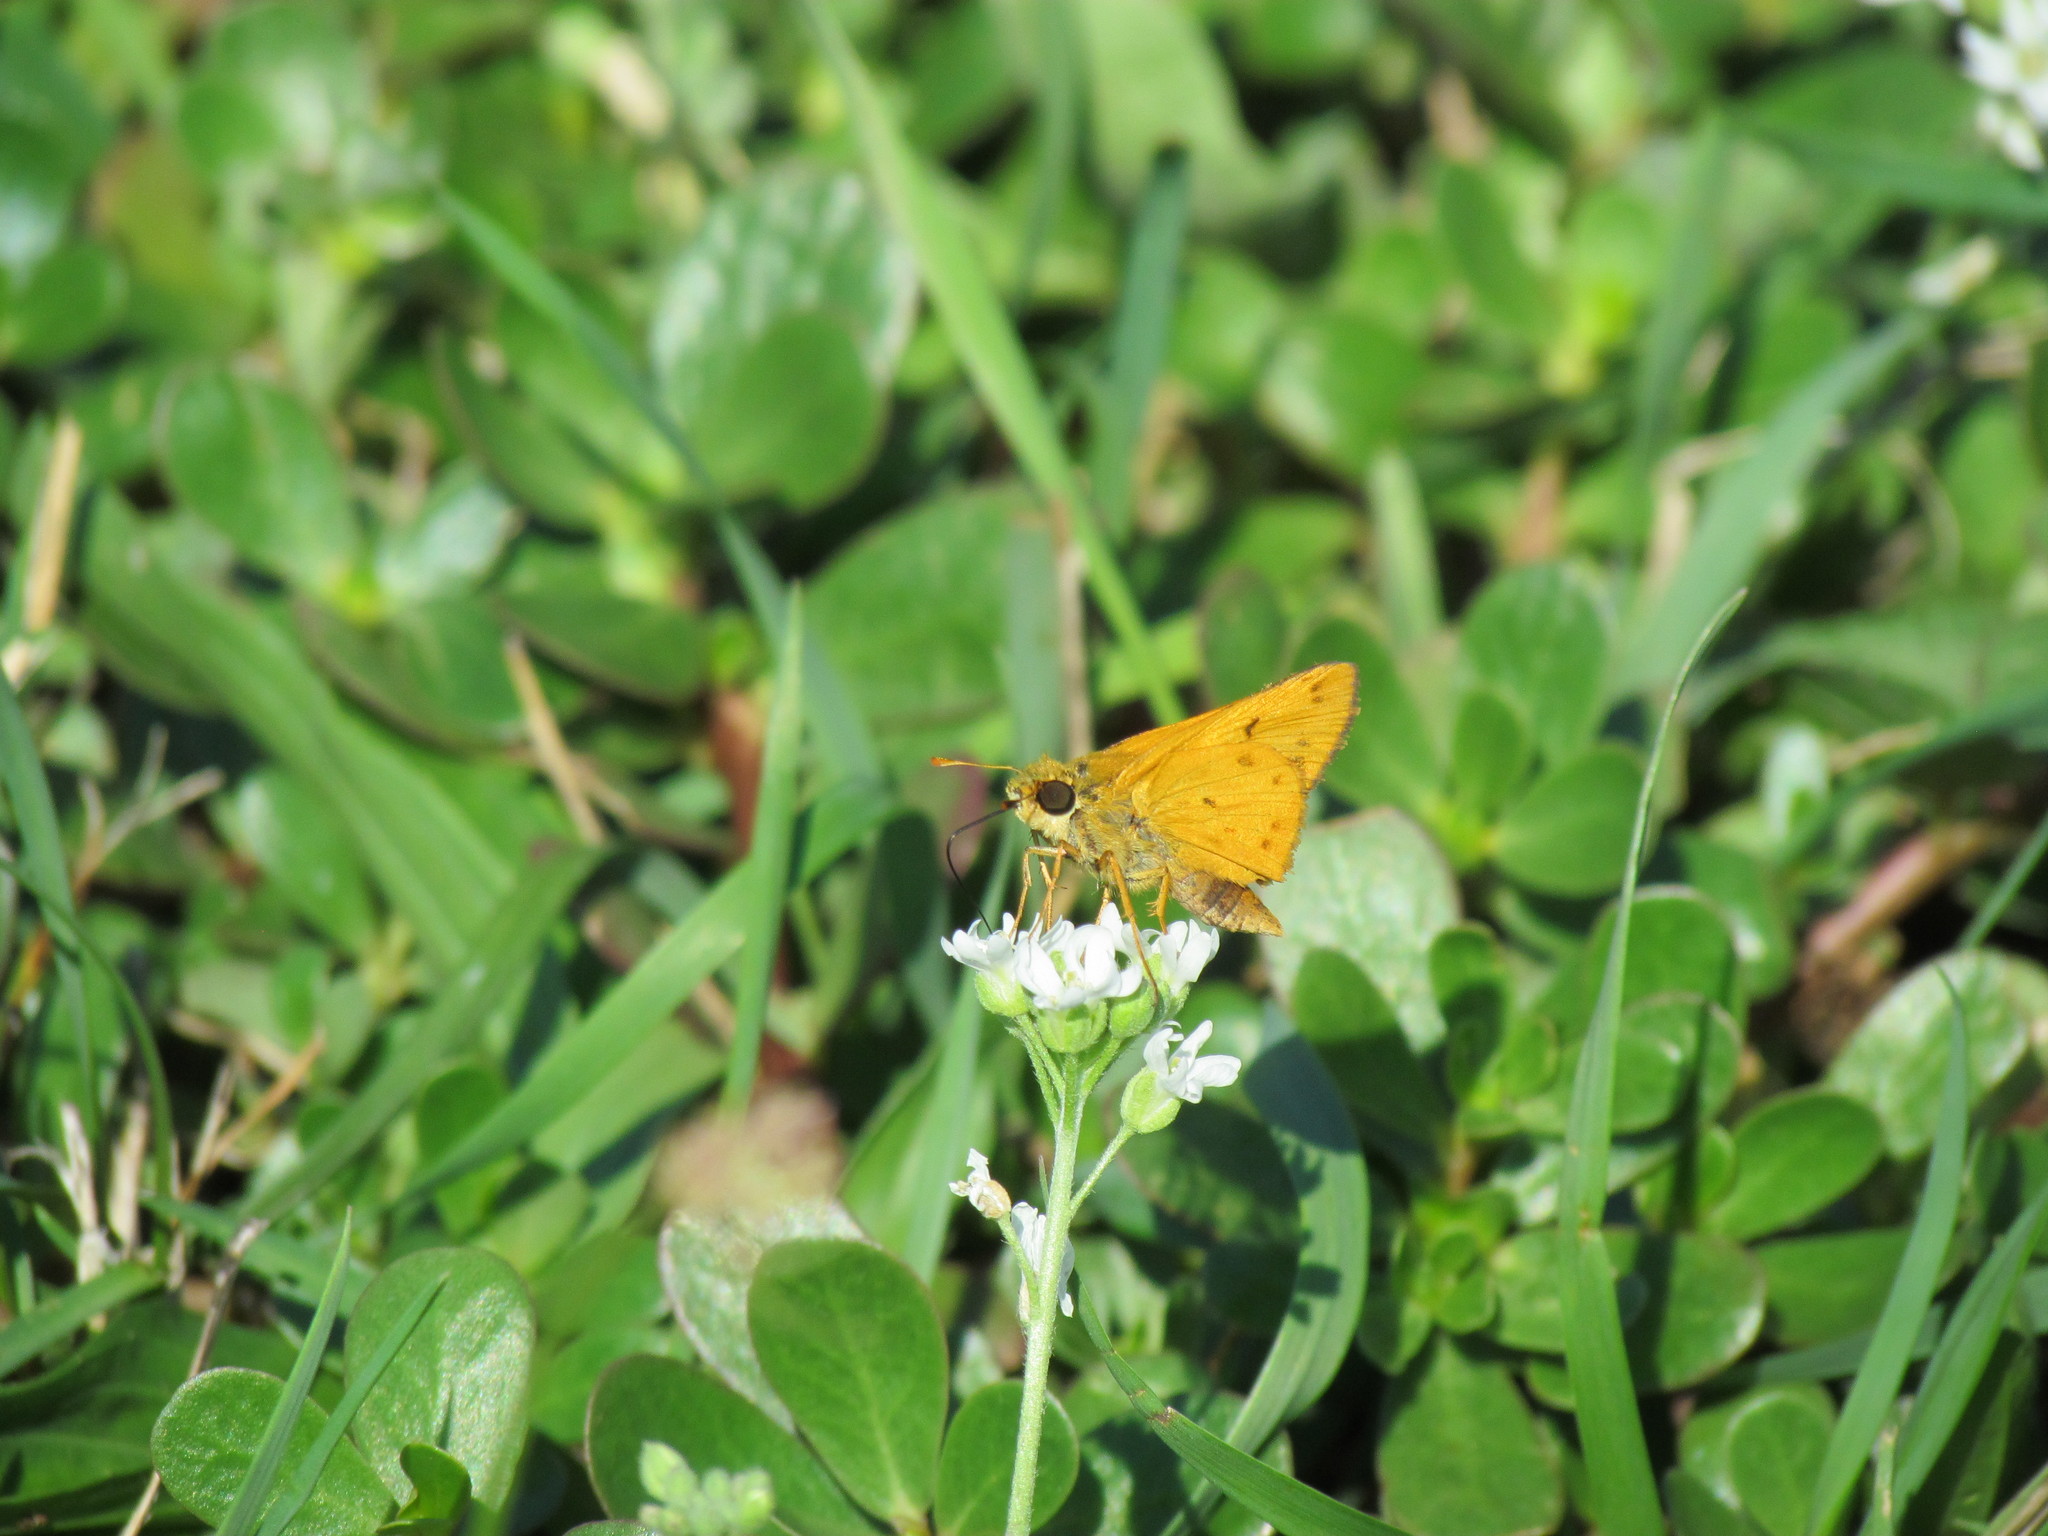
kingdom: Animalia
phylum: Arthropoda
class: Insecta
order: Lepidoptera
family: Hesperiidae
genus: Hylephila
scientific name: Hylephila phyleus
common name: Fiery skipper
